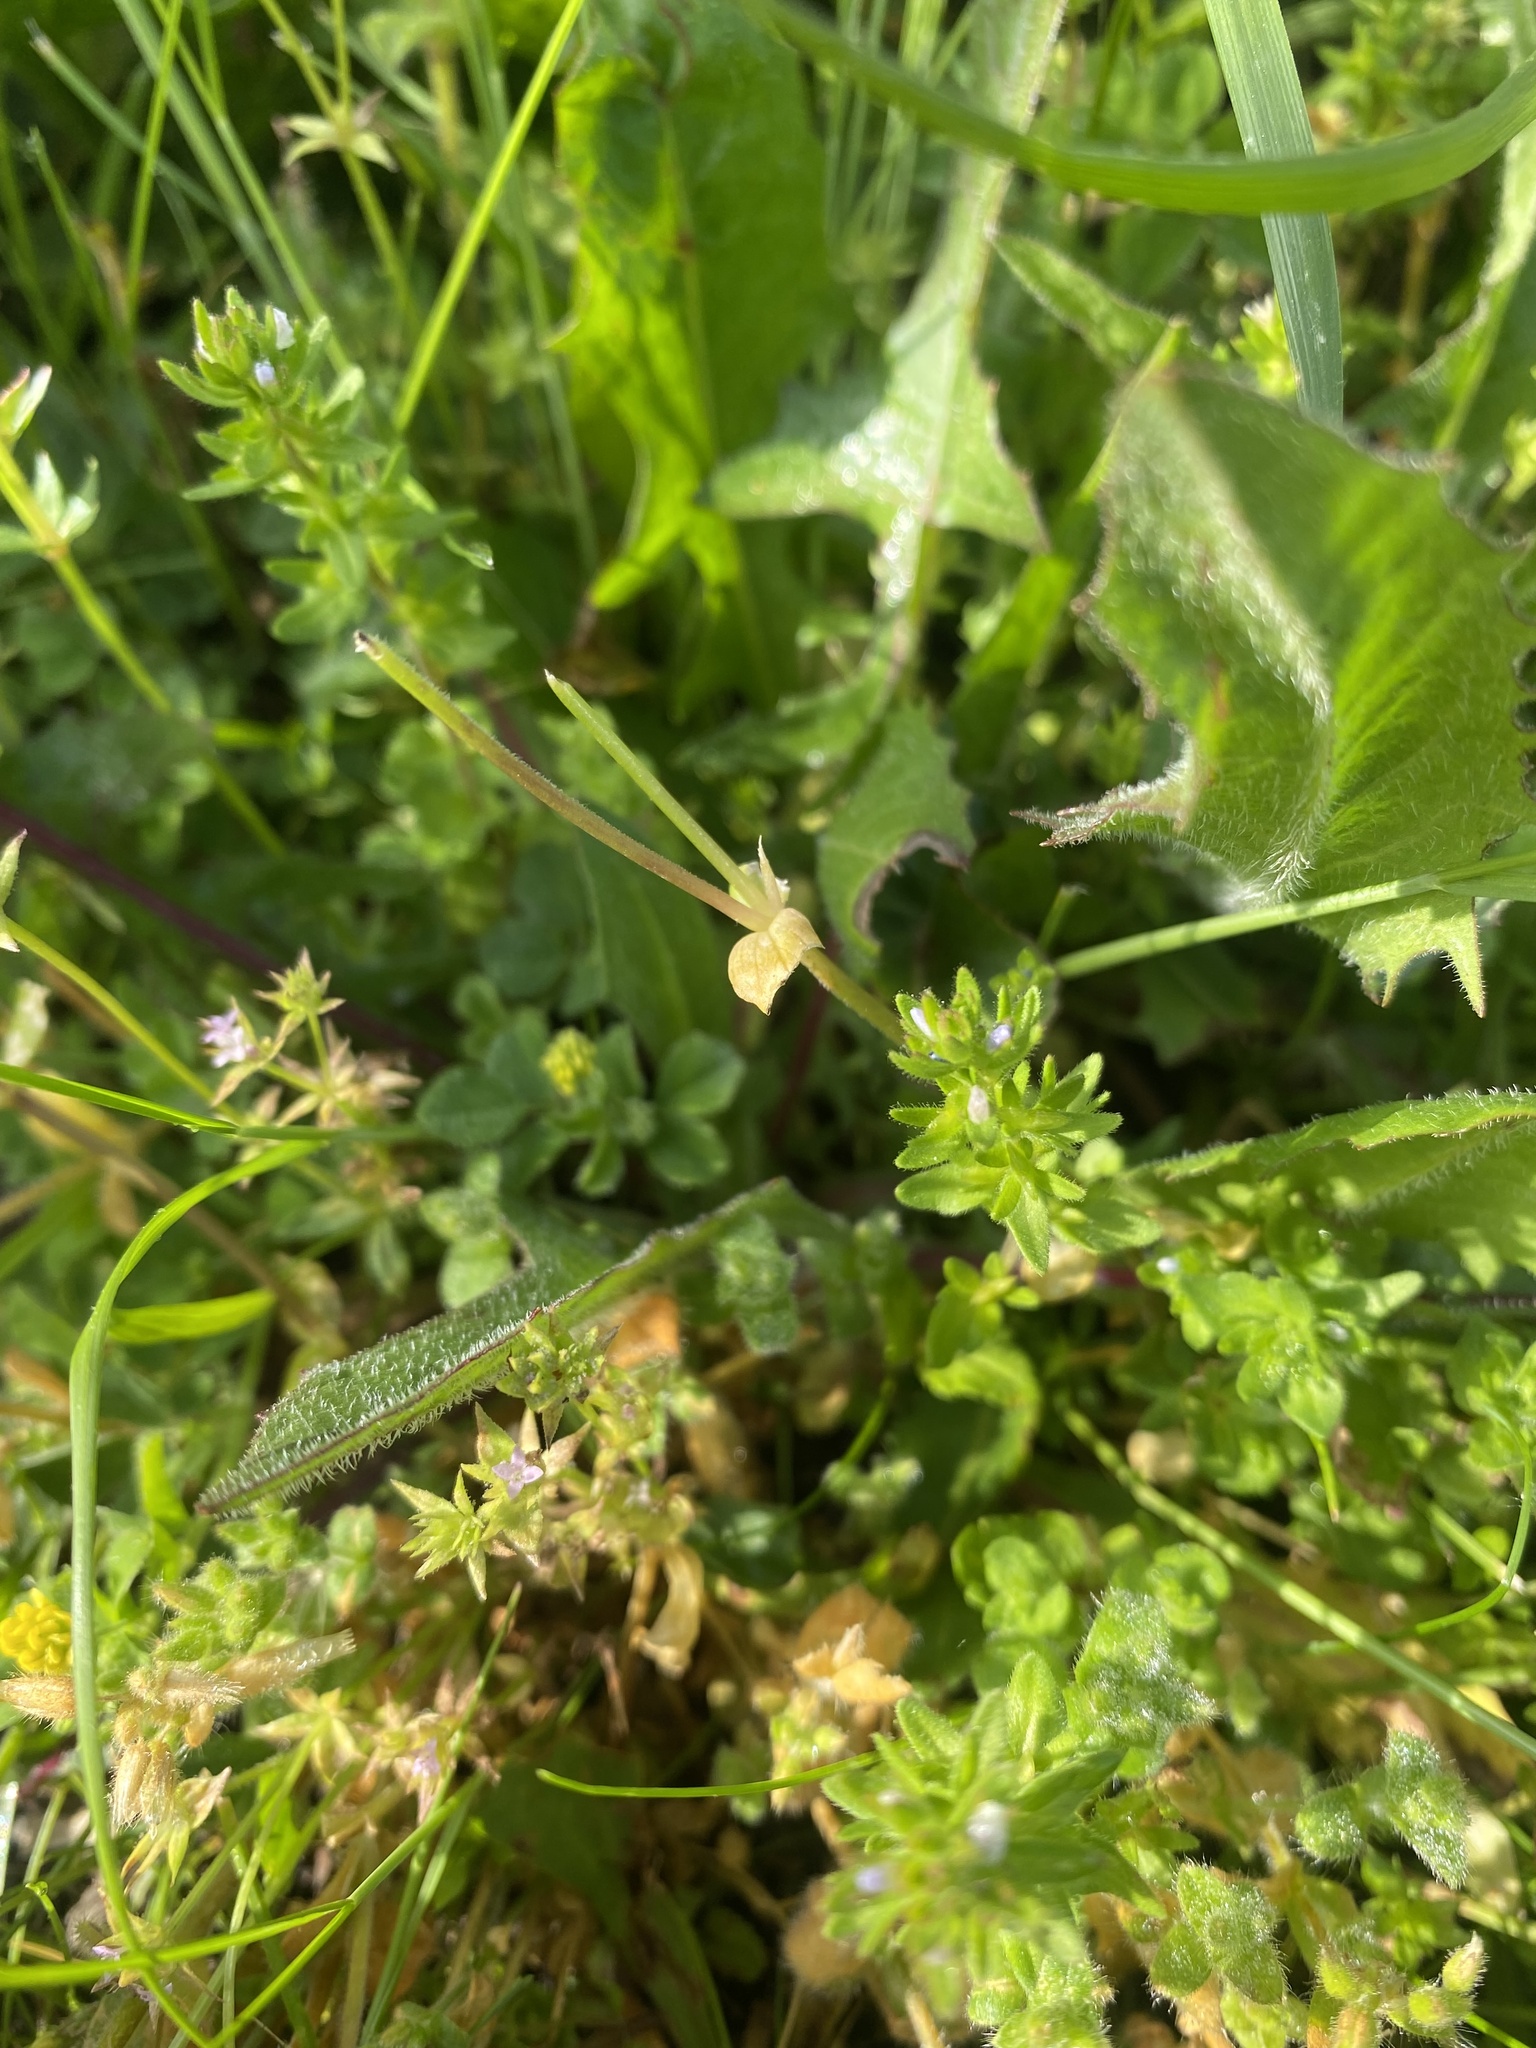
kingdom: Plantae
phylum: Tracheophyta
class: Magnoliopsida
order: Lamiales
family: Plantaginaceae
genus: Veronica
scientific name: Veronica arvensis
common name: Corn speedwell
